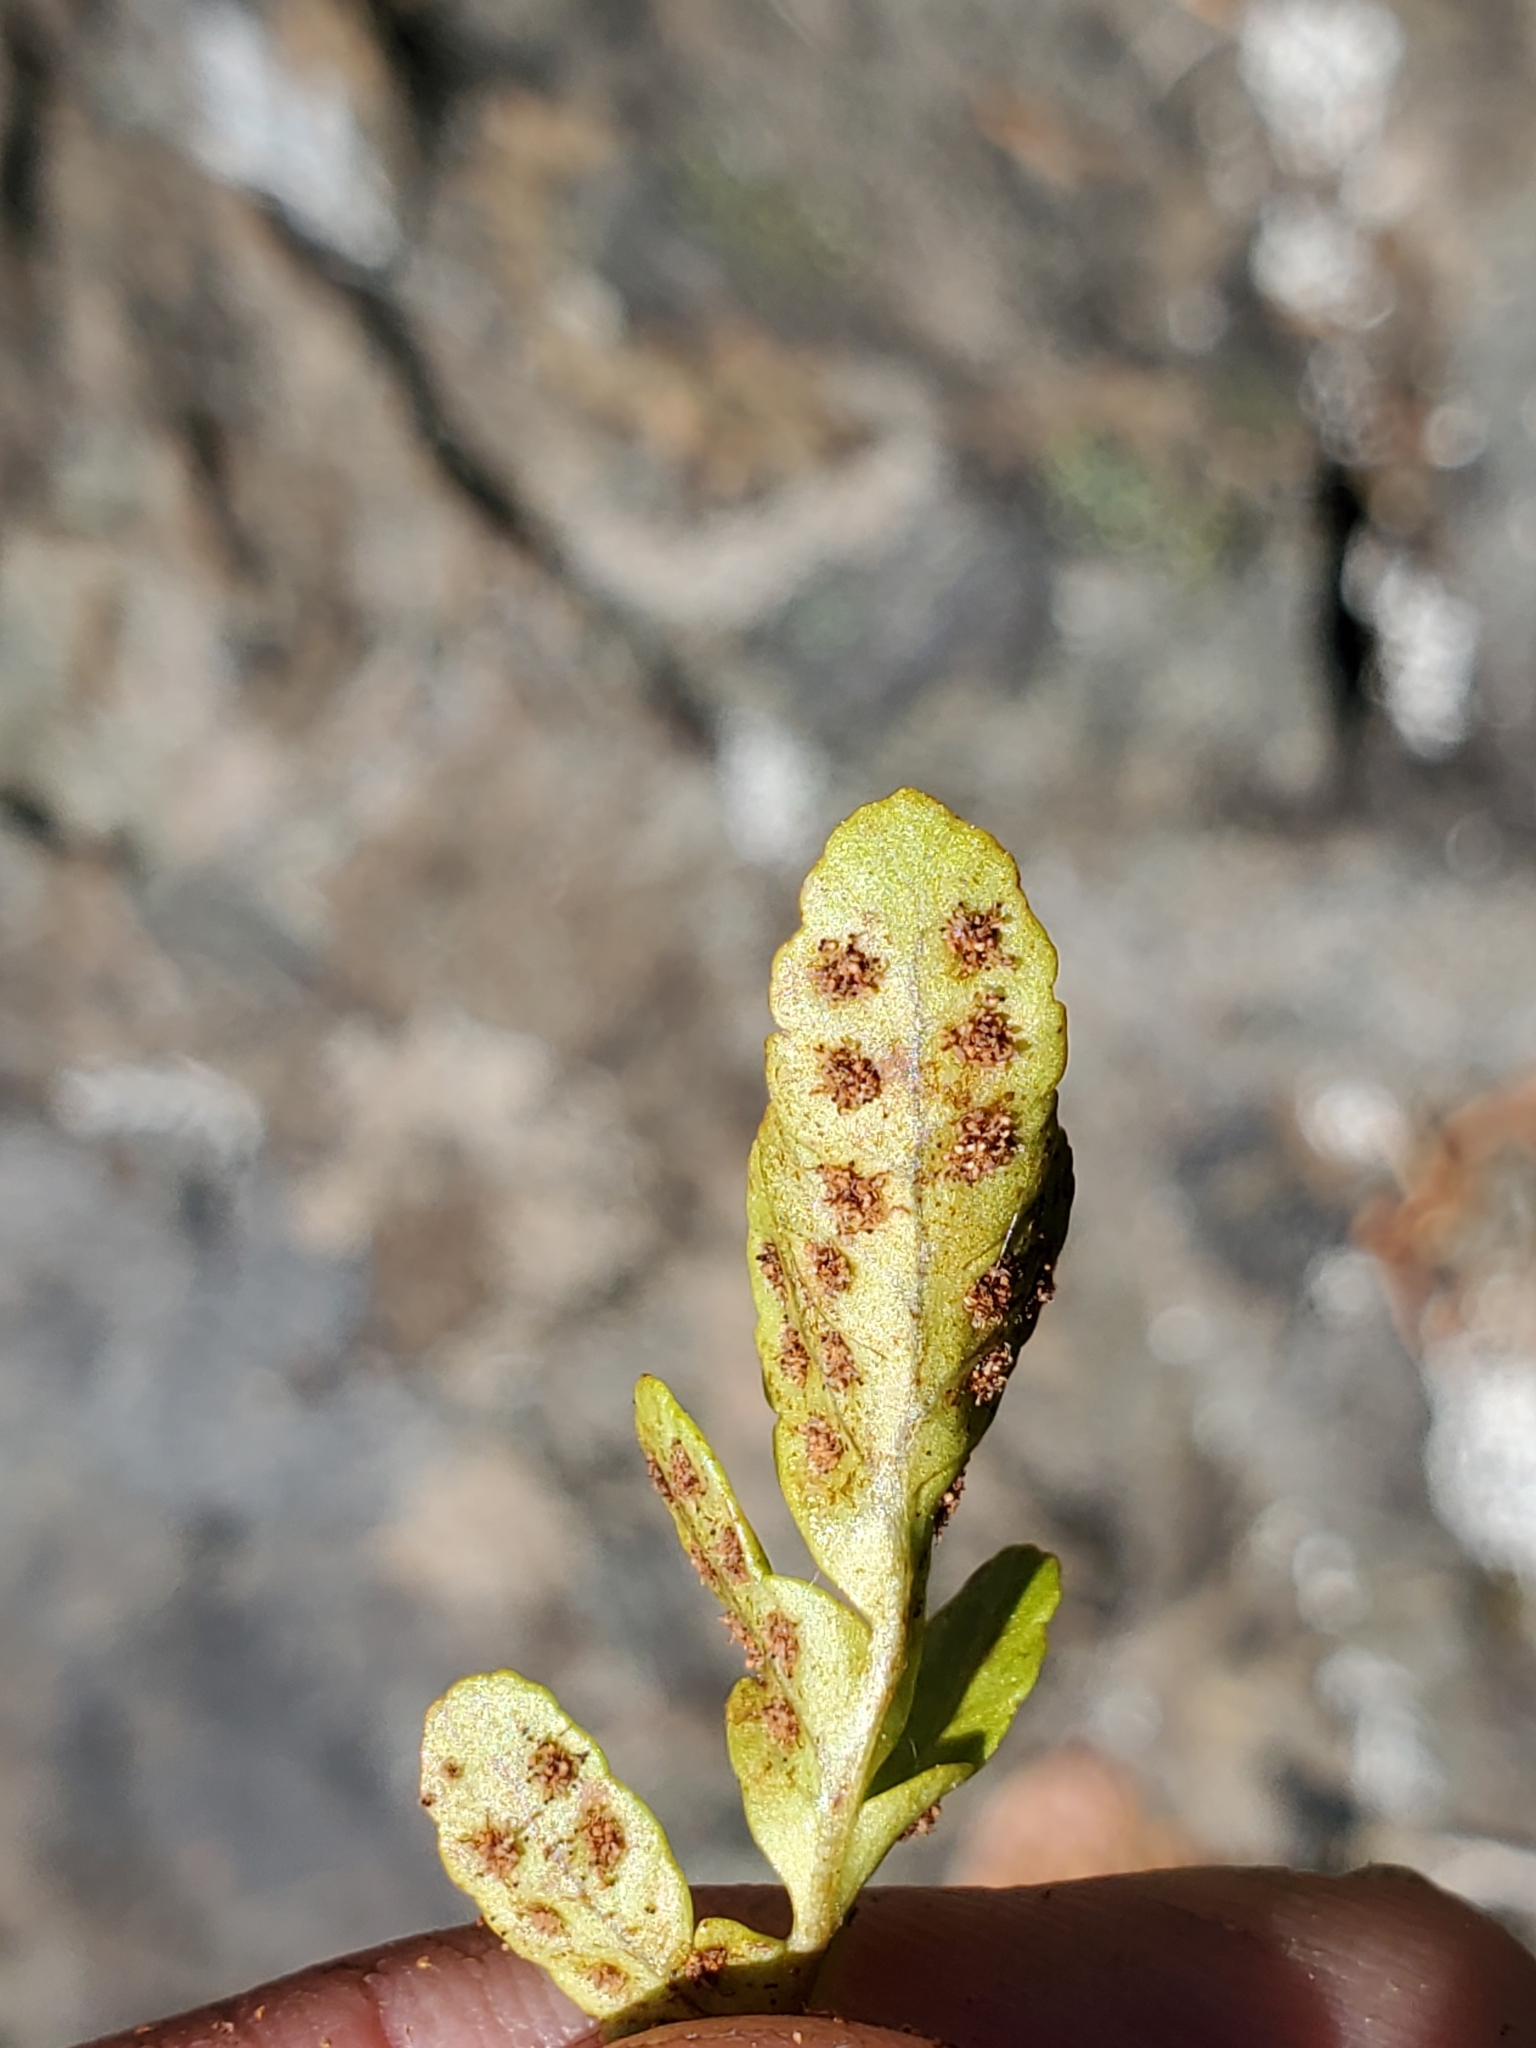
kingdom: Plantae
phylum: Tracheophyta
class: Polypodiopsida
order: Polypodiales
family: Polypodiaceae
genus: Polypodium
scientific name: Polypodium amorphum
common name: Pacific polypody
